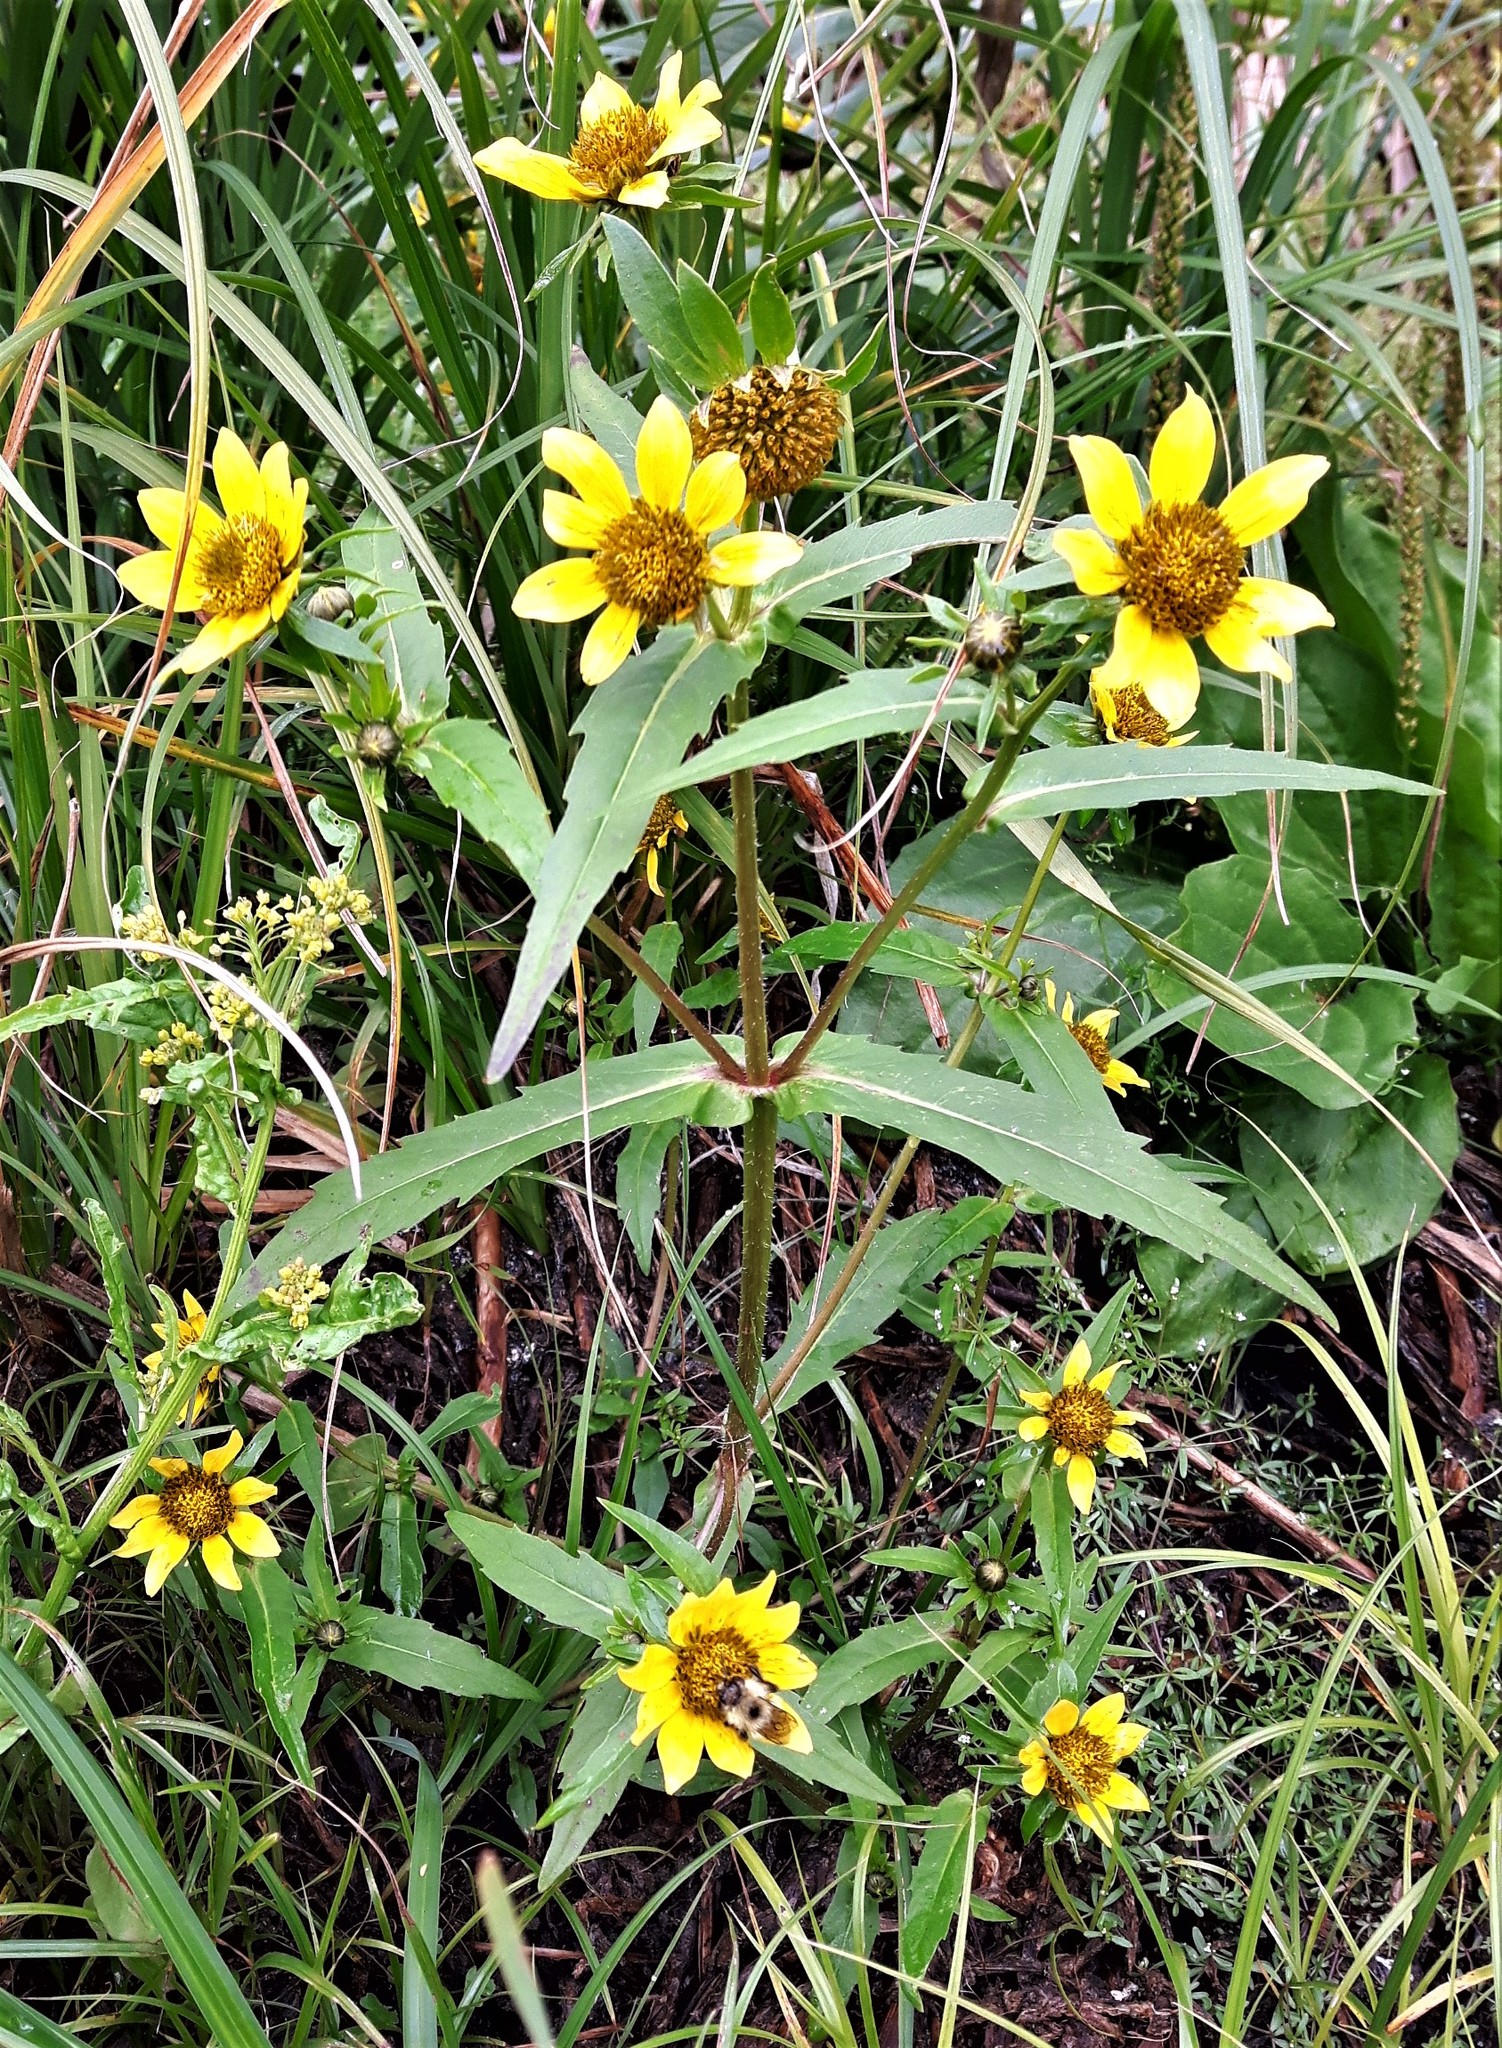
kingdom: Plantae
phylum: Tracheophyta
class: Magnoliopsida
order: Asterales
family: Asteraceae
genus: Bidens
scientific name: Bidens cernua
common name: Nodding bur-marigold
